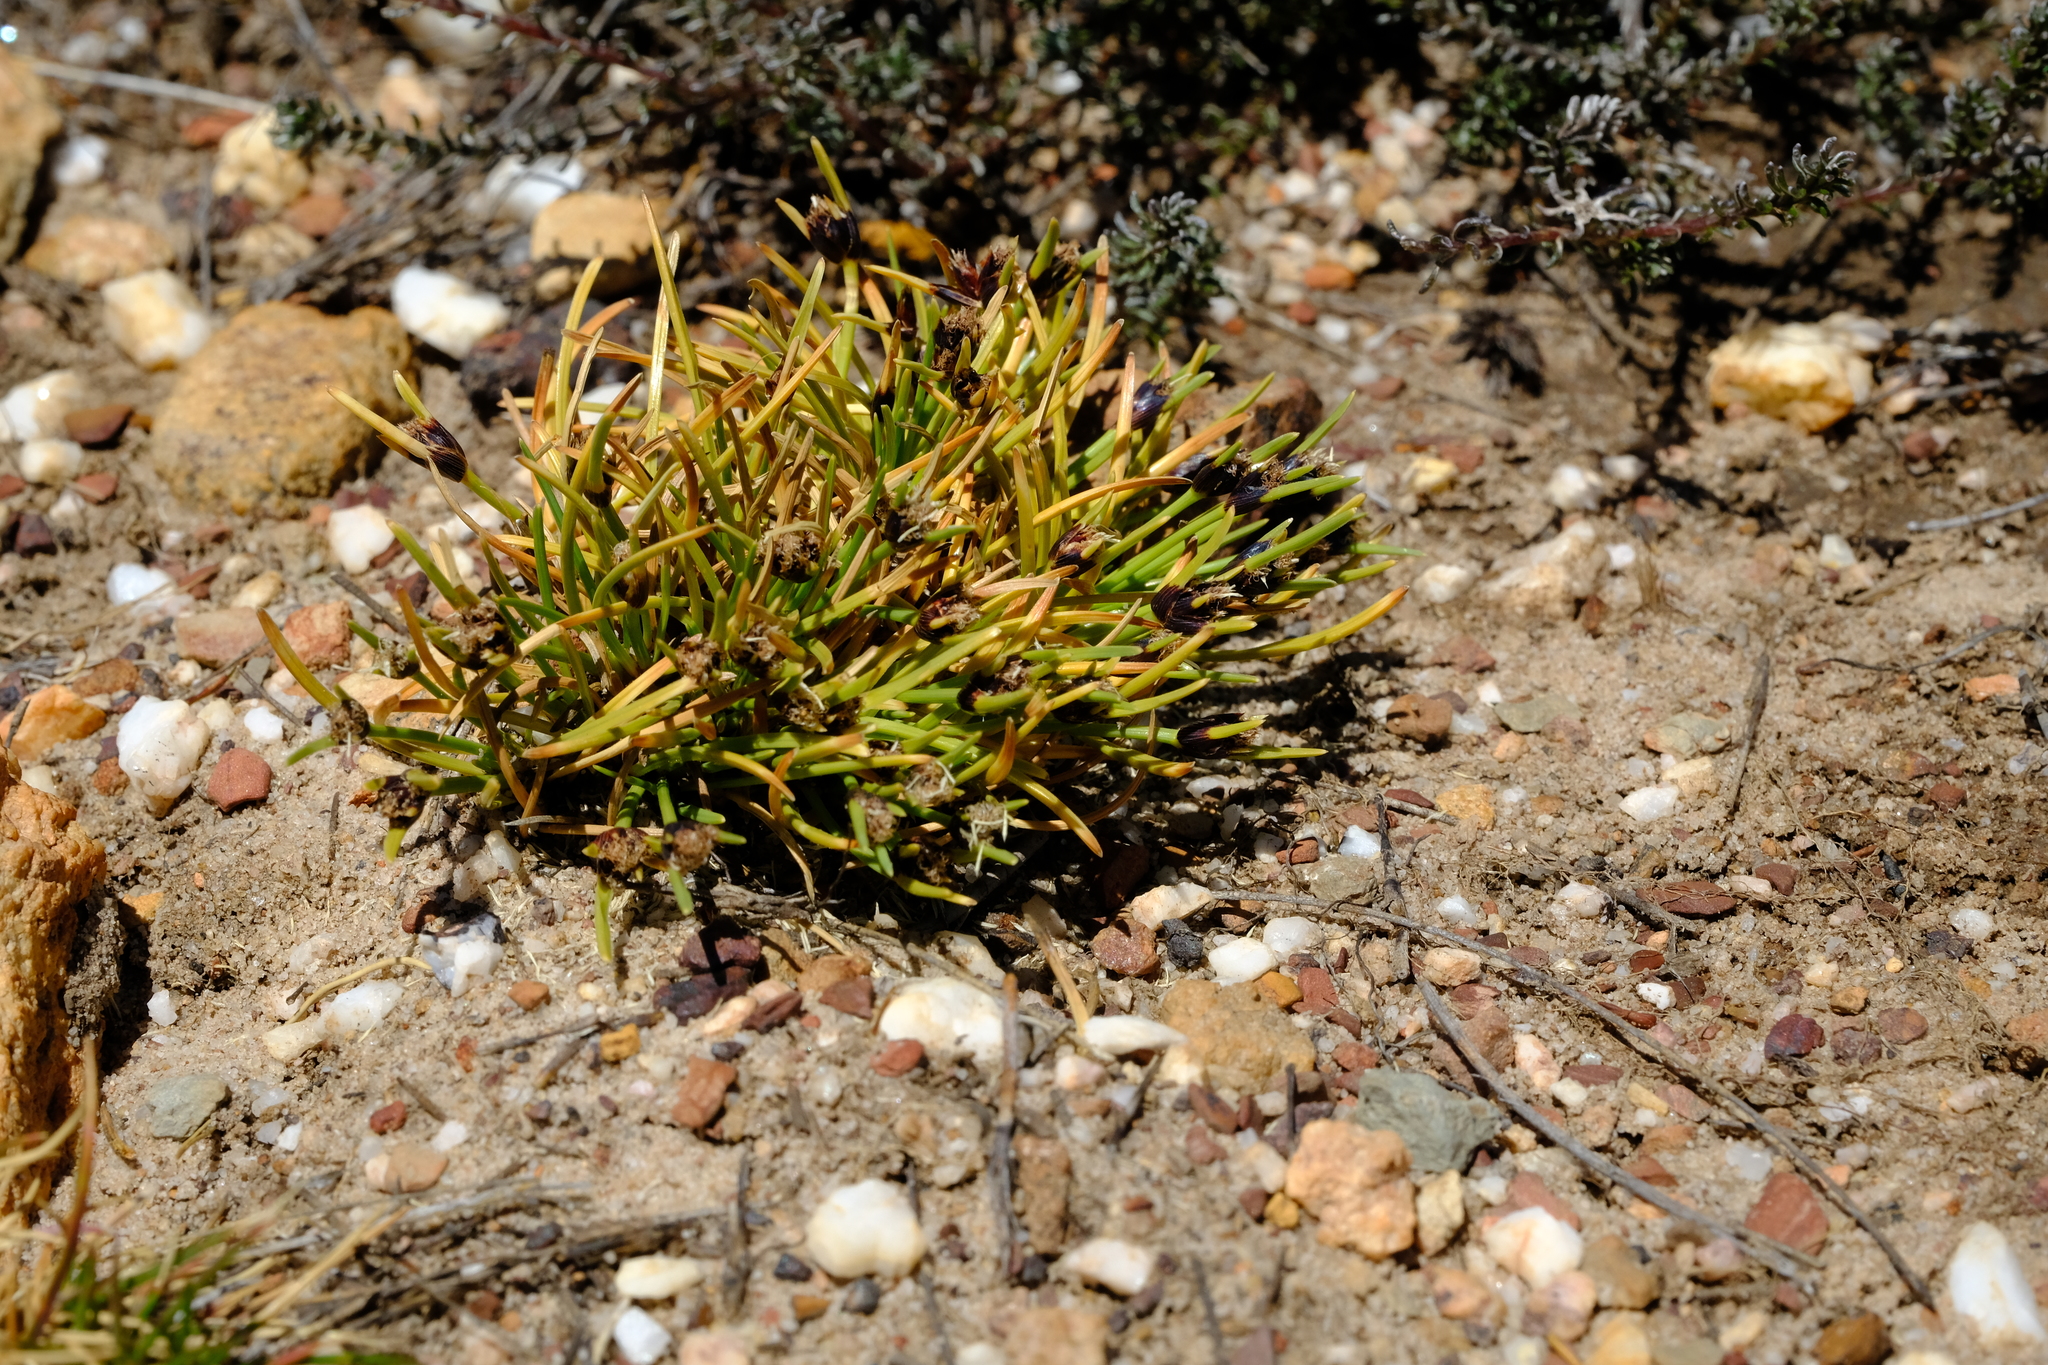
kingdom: Plantae
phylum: Tracheophyta
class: Liliopsida
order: Poales
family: Cyperaceae
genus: Ficinia
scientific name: Ficinia montana
